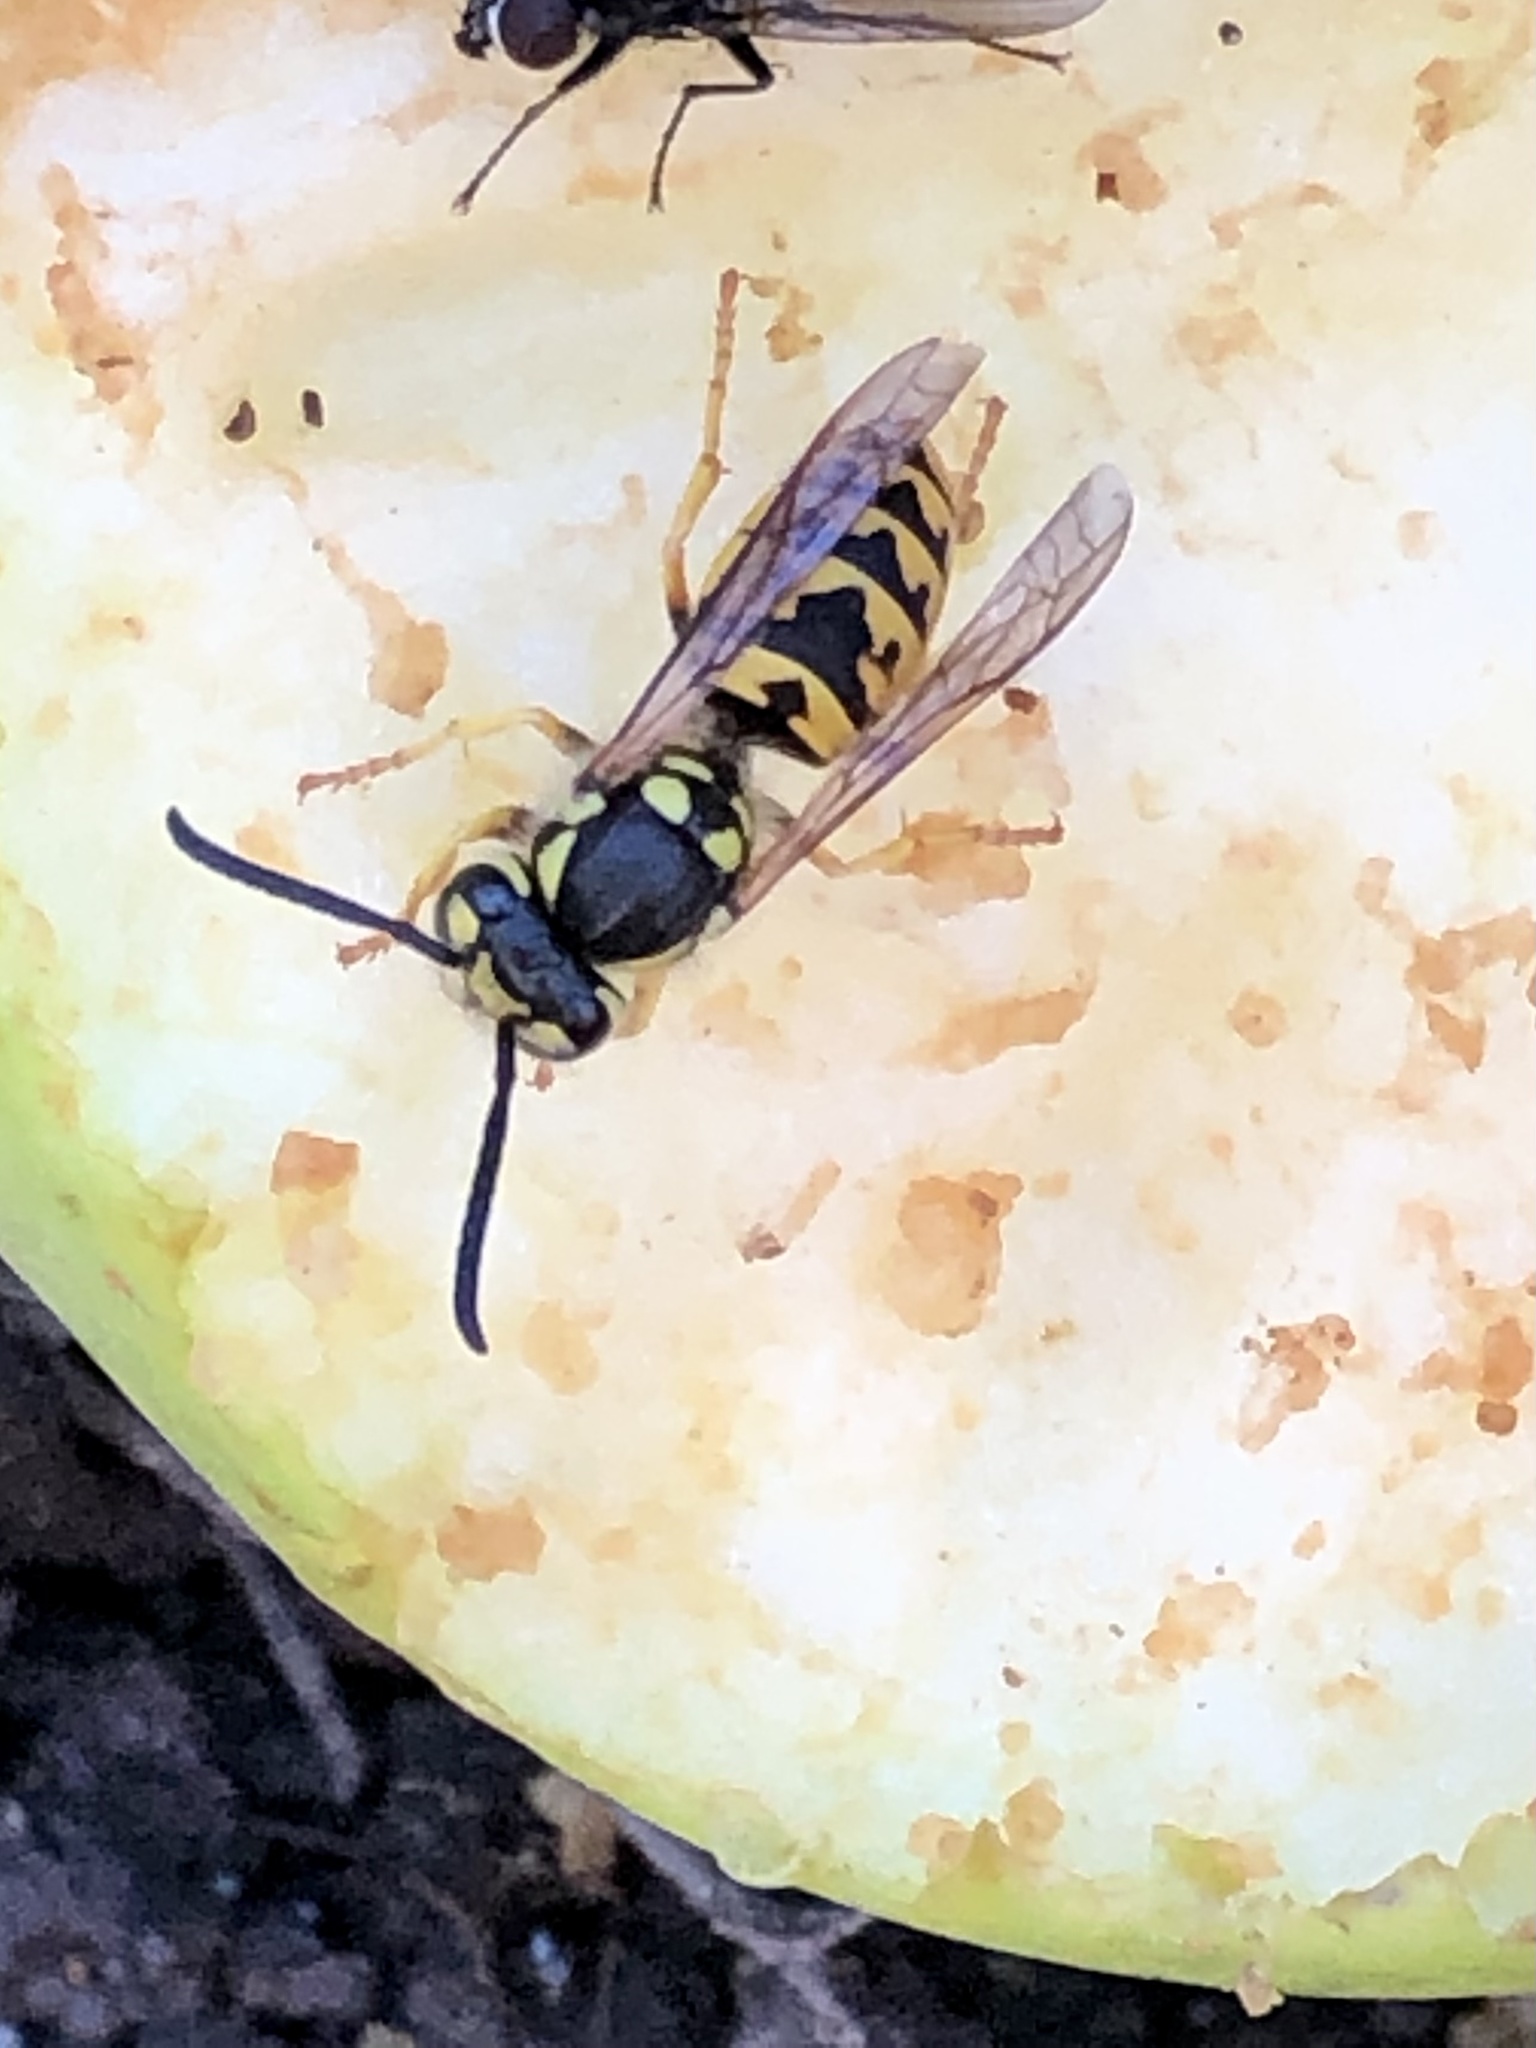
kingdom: Animalia
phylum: Arthropoda
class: Insecta
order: Hymenoptera
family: Vespidae
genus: Vespula
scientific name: Vespula germanica
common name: German wasp
